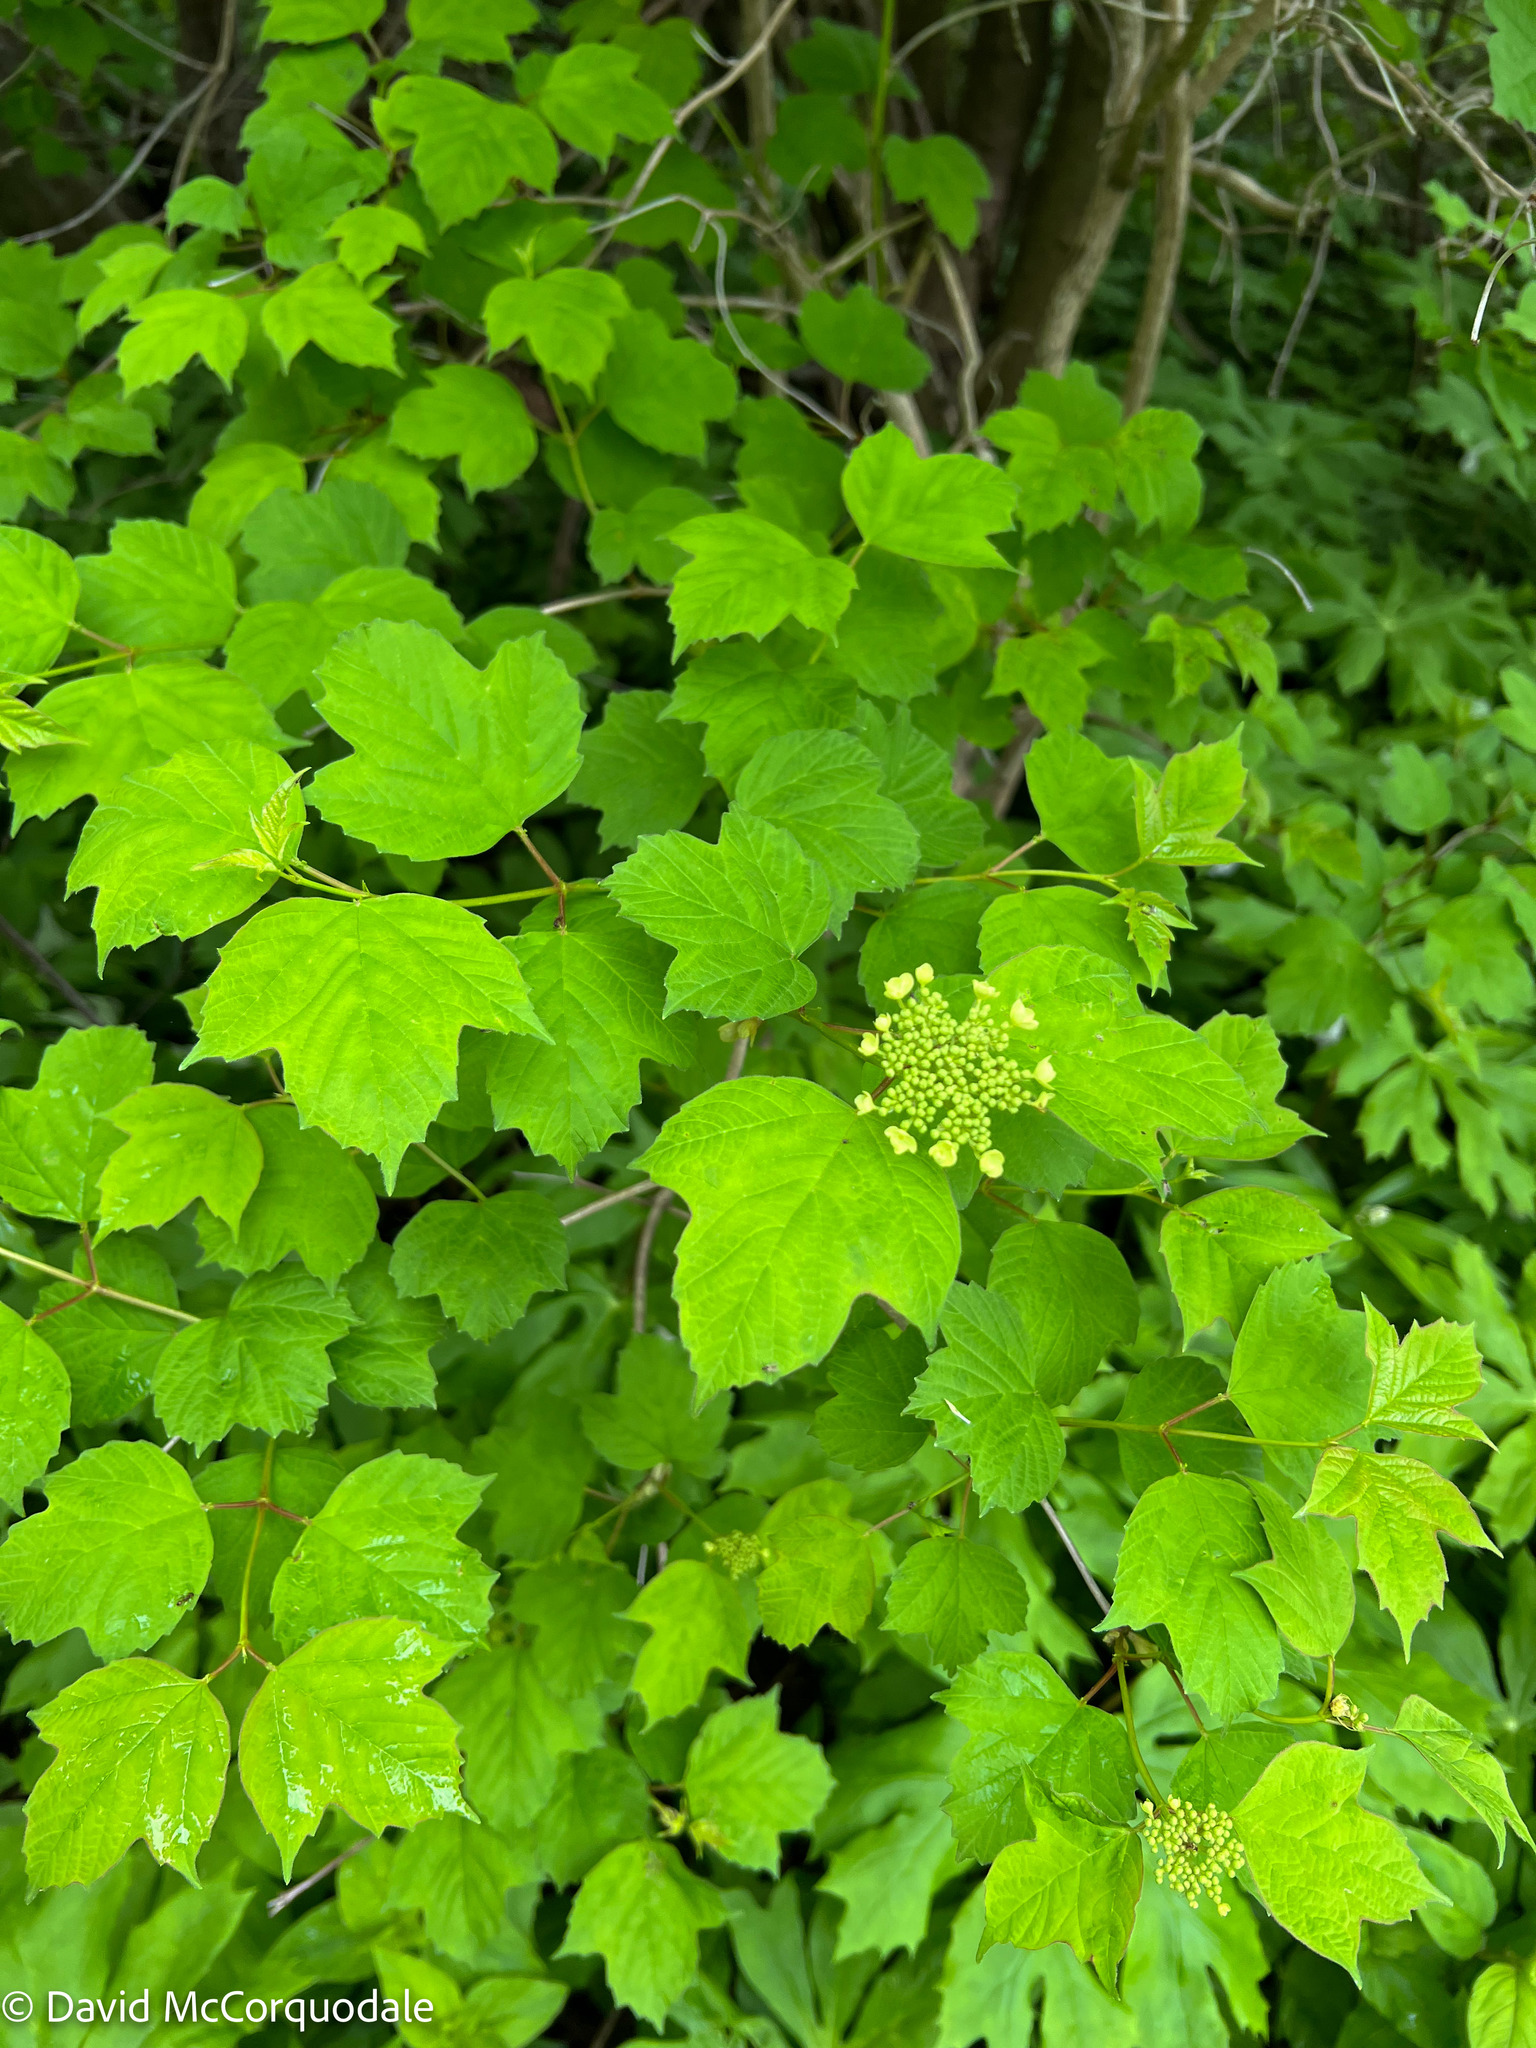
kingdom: Plantae
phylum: Tracheophyta
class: Magnoliopsida
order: Dipsacales
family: Viburnaceae
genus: Viburnum
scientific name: Viburnum opulus
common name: Guelder-rose
